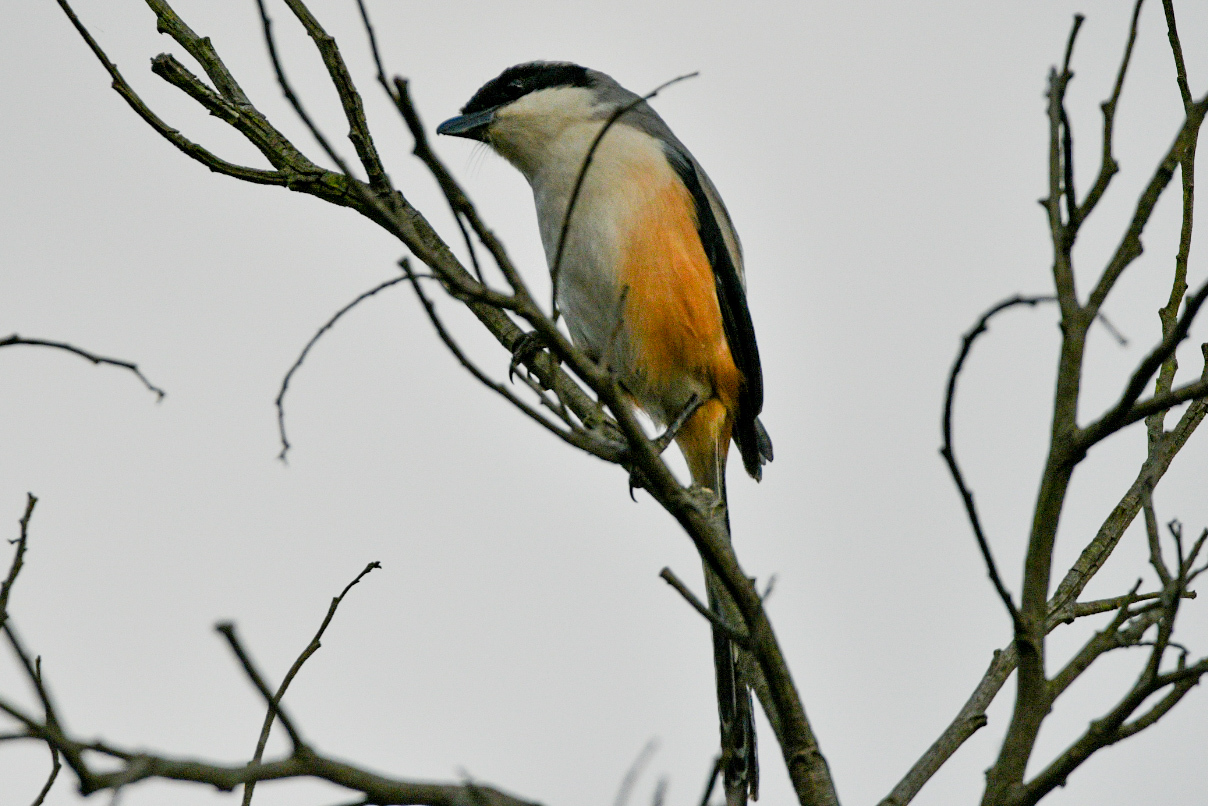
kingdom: Animalia
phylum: Chordata
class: Aves
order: Passeriformes
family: Laniidae
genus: Lanius
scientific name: Lanius schach
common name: Long-tailed shrike
